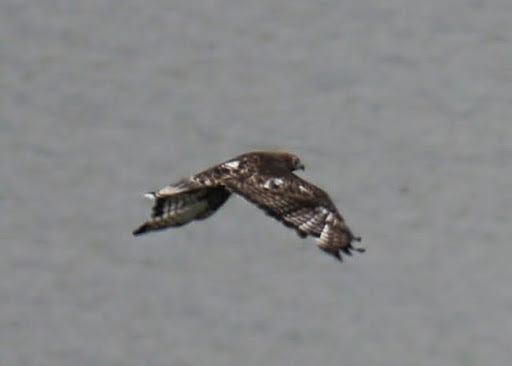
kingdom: Animalia
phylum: Chordata
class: Aves
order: Accipitriformes
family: Accipitridae
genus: Buteo
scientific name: Buteo jamaicensis
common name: Red-tailed hawk
